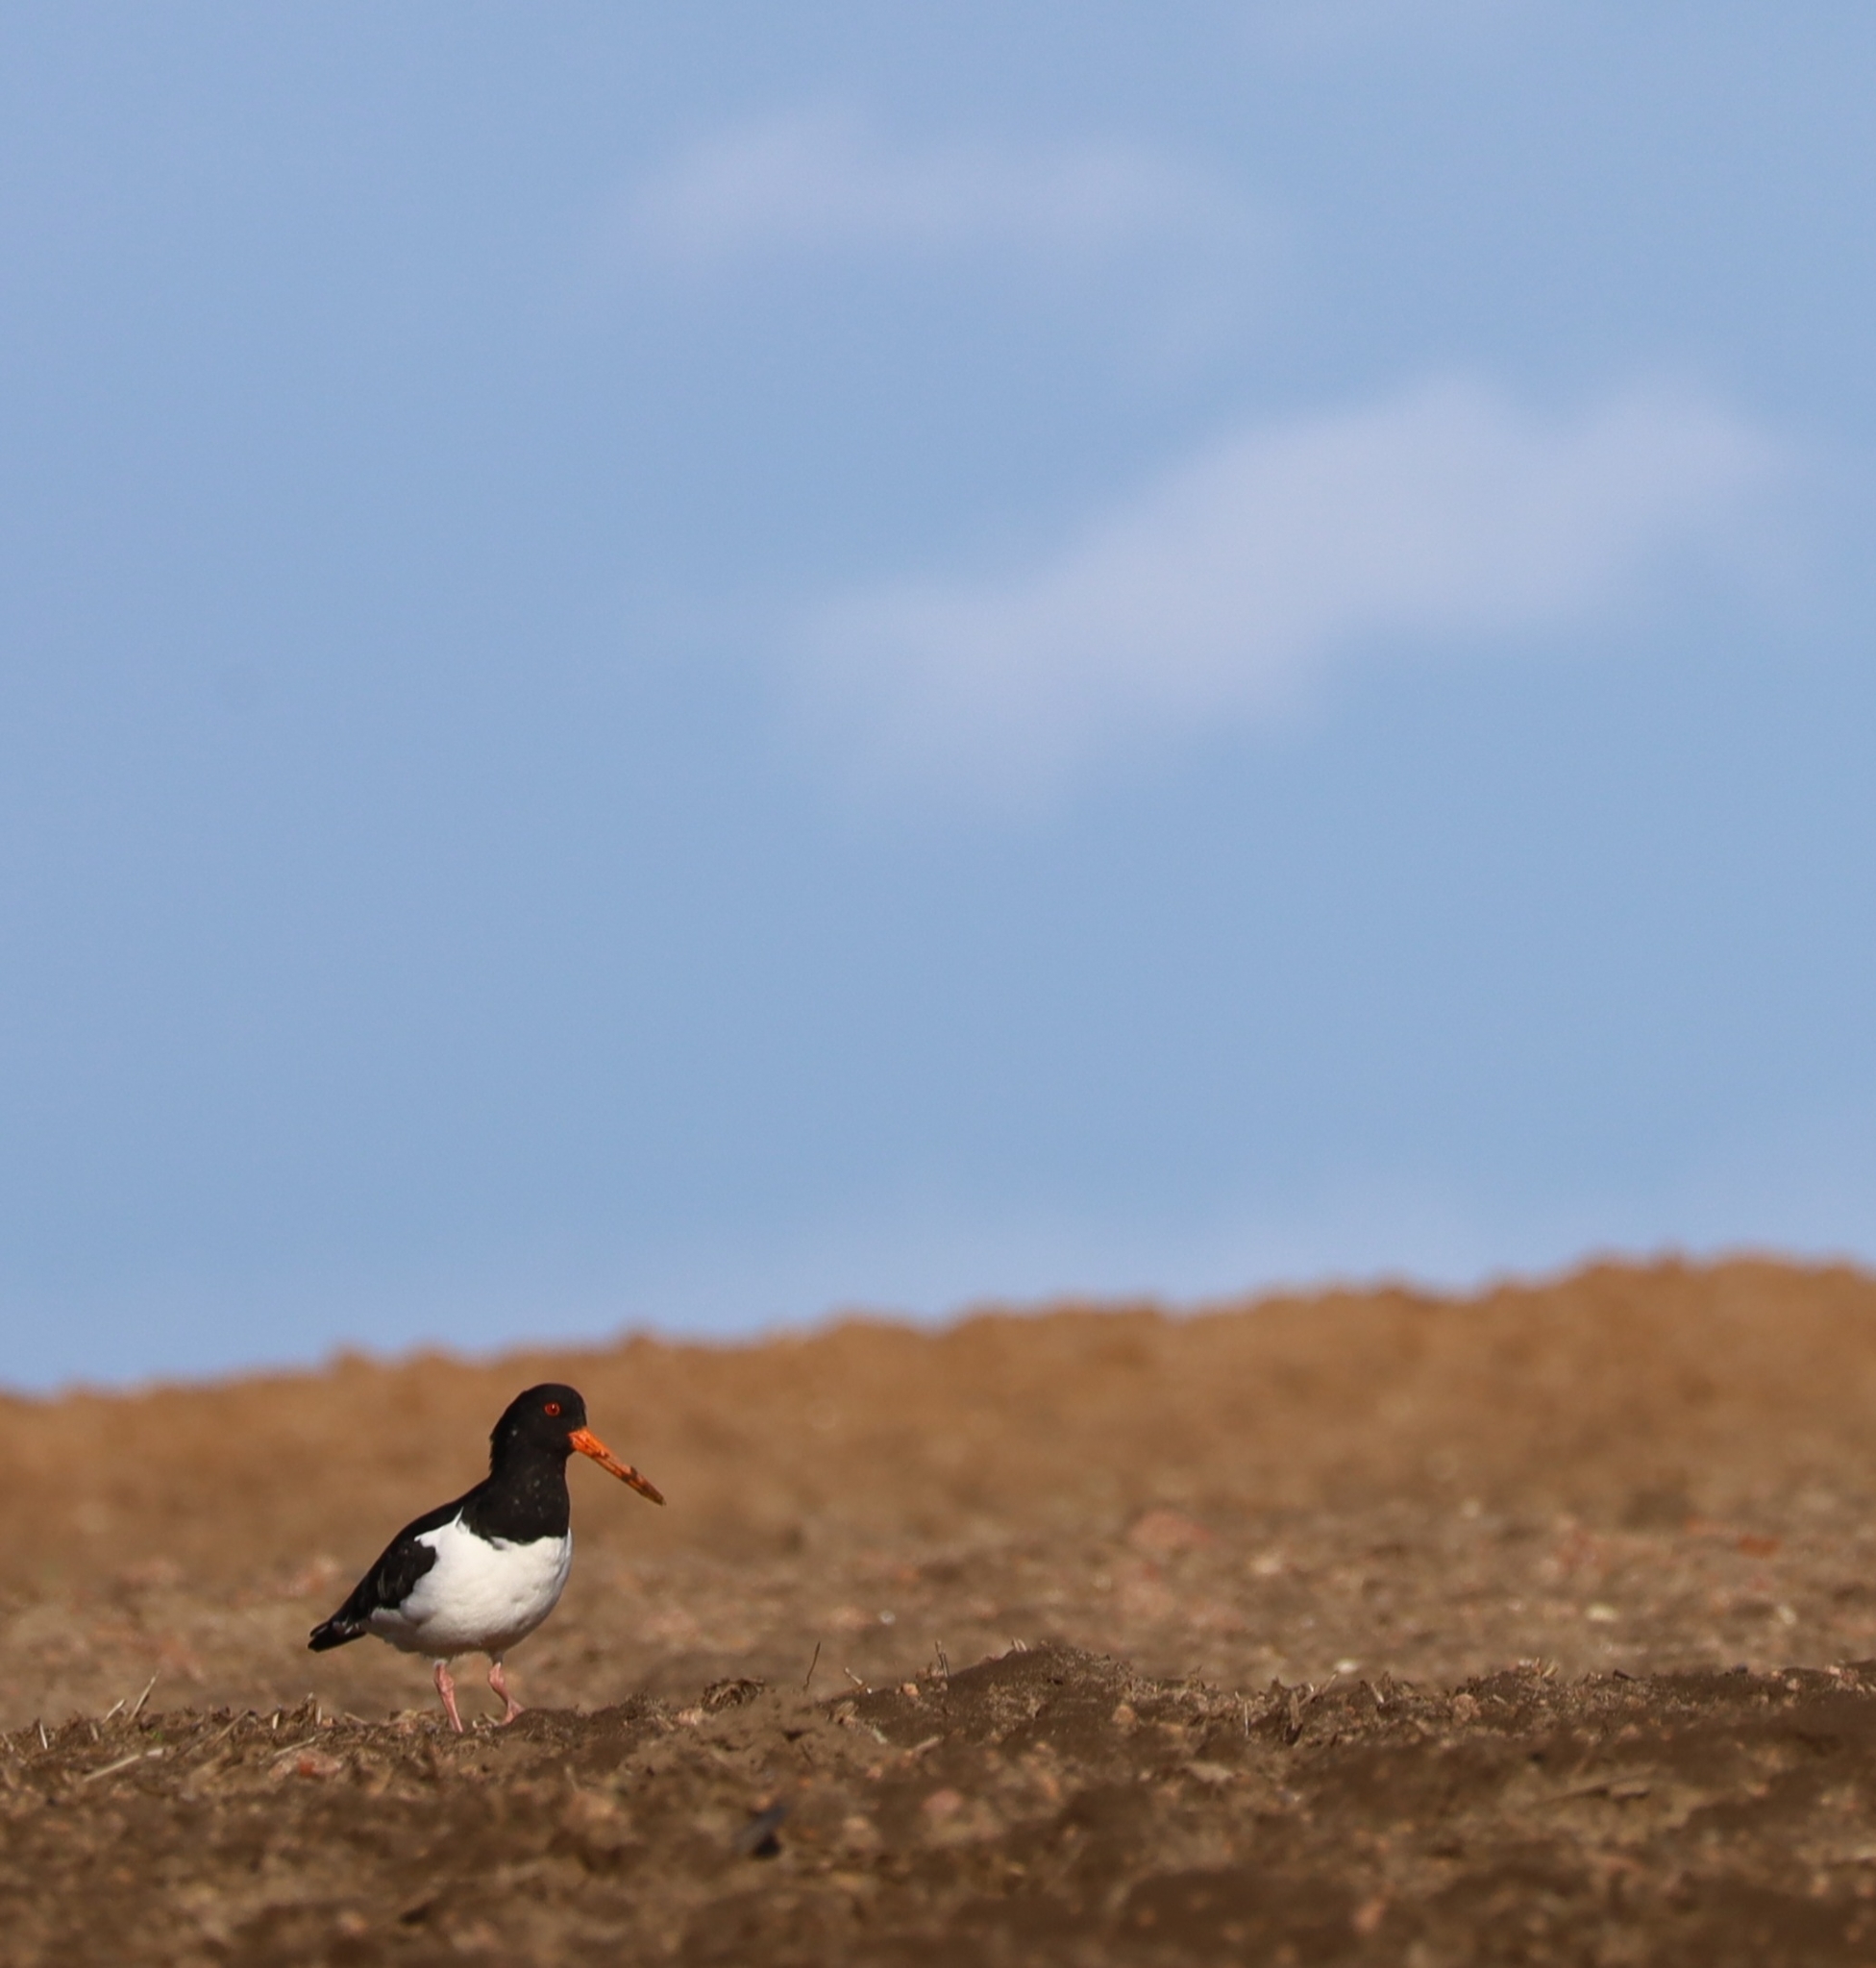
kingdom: Animalia
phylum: Chordata
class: Aves
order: Charadriiformes
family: Haematopodidae
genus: Haematopus
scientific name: Haematopus ostralegus
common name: Eurasian oystercatcher
